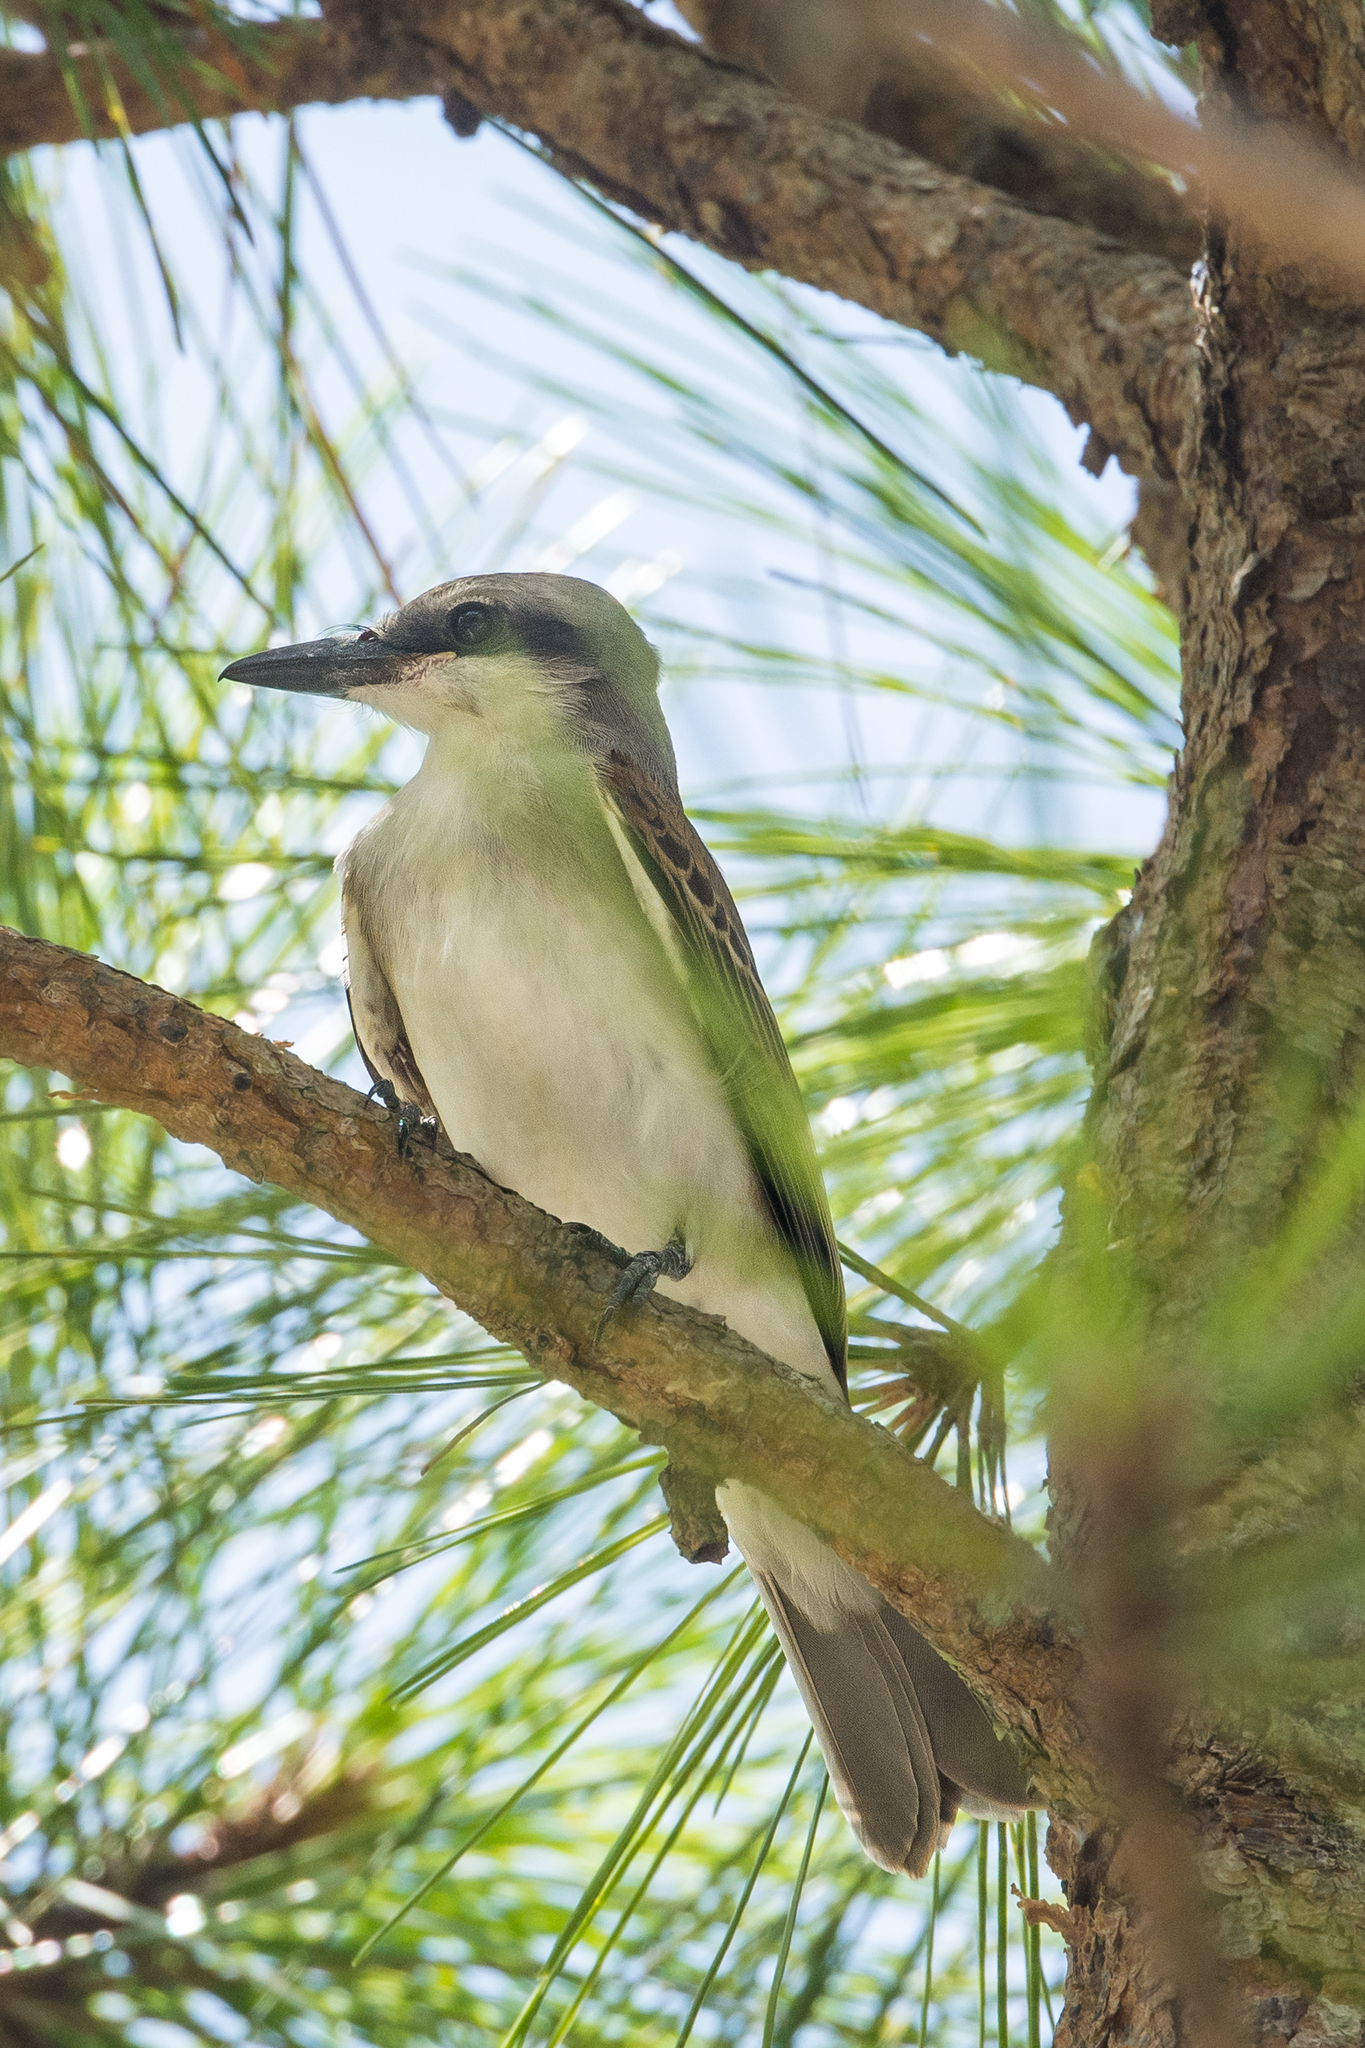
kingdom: Animalia
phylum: Chordata
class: Aves
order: Passeriformes
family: Tyrannidae
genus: Tyrannus
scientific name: Tyrannus dominicensis
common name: Gray kingbird
